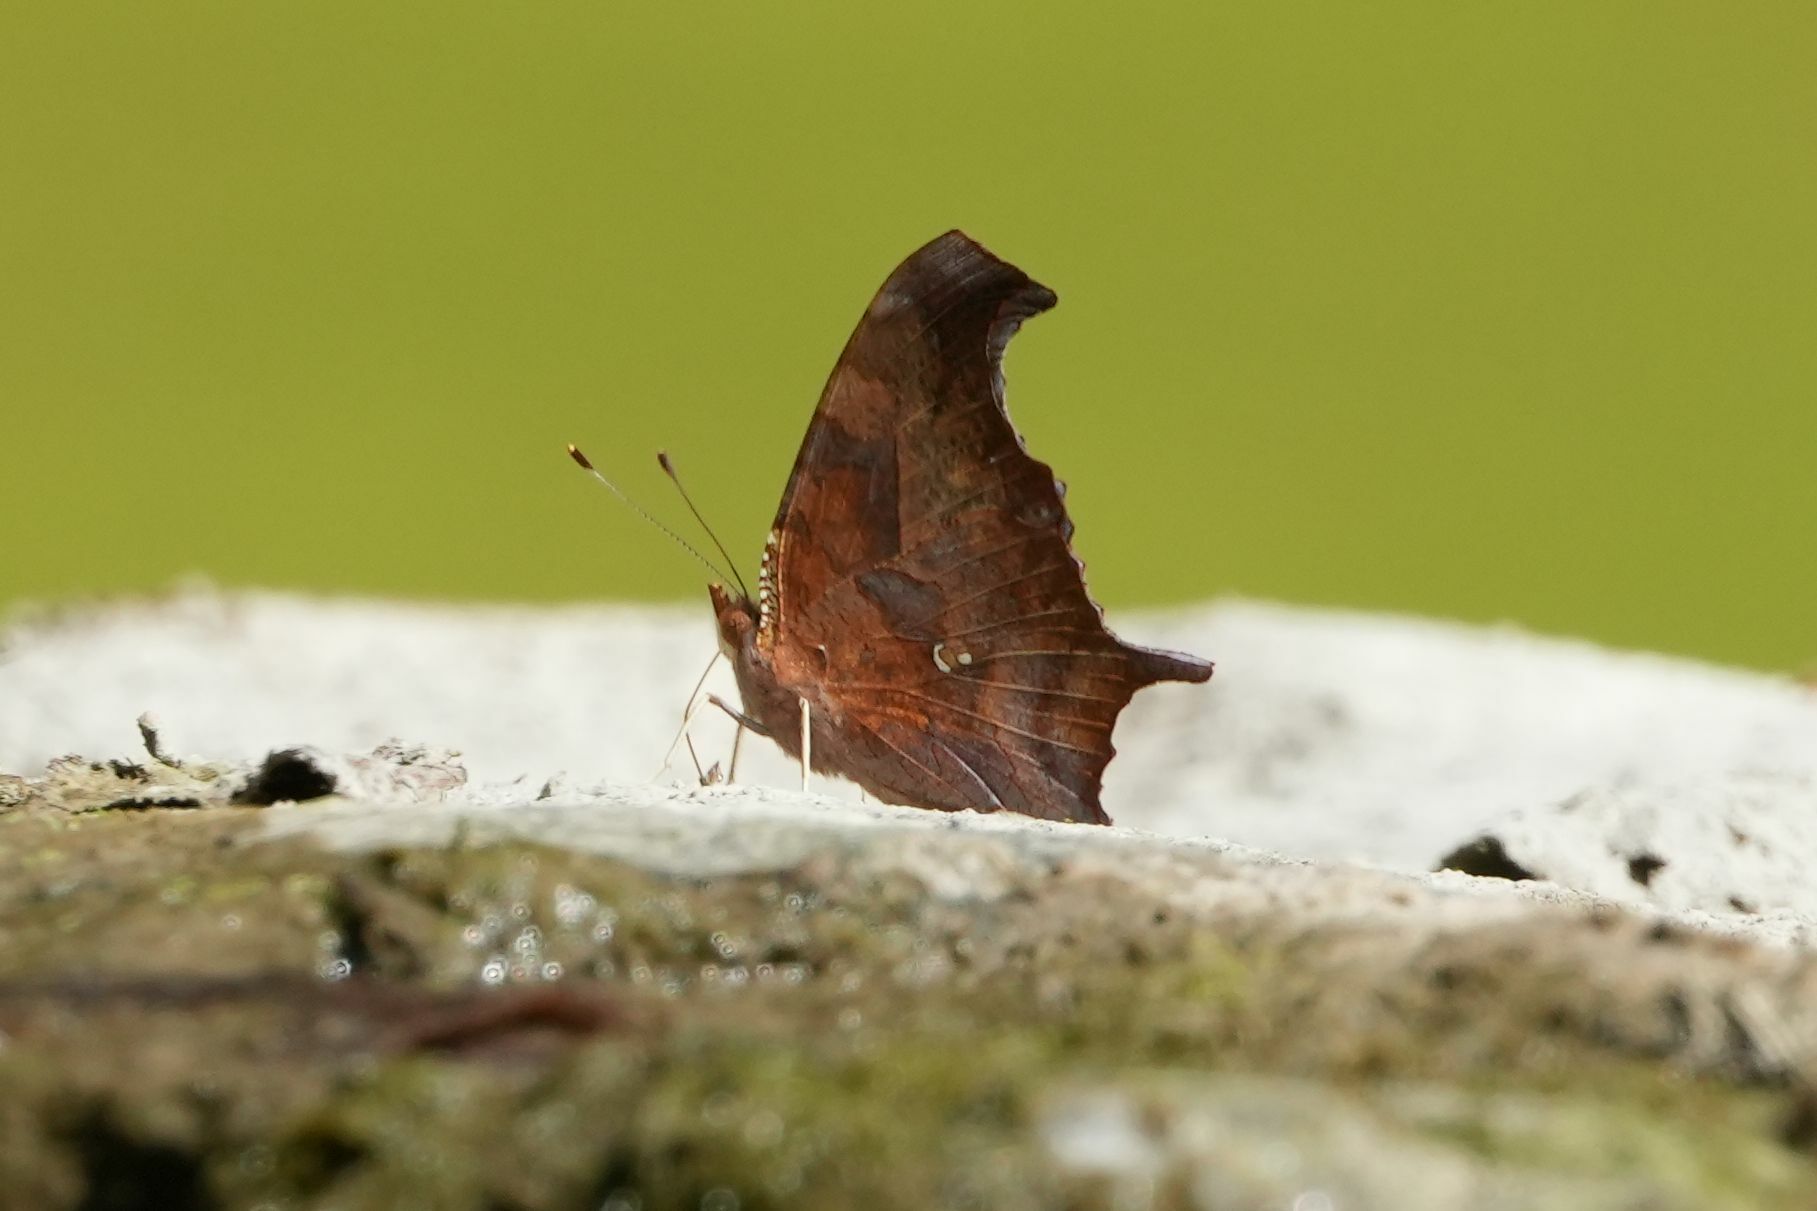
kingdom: Animalia
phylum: Arthropoda
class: Insecta
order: Lepidoptera
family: Nymphalidae
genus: Polygonia
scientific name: Polygonia interrogationis
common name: Question mark
